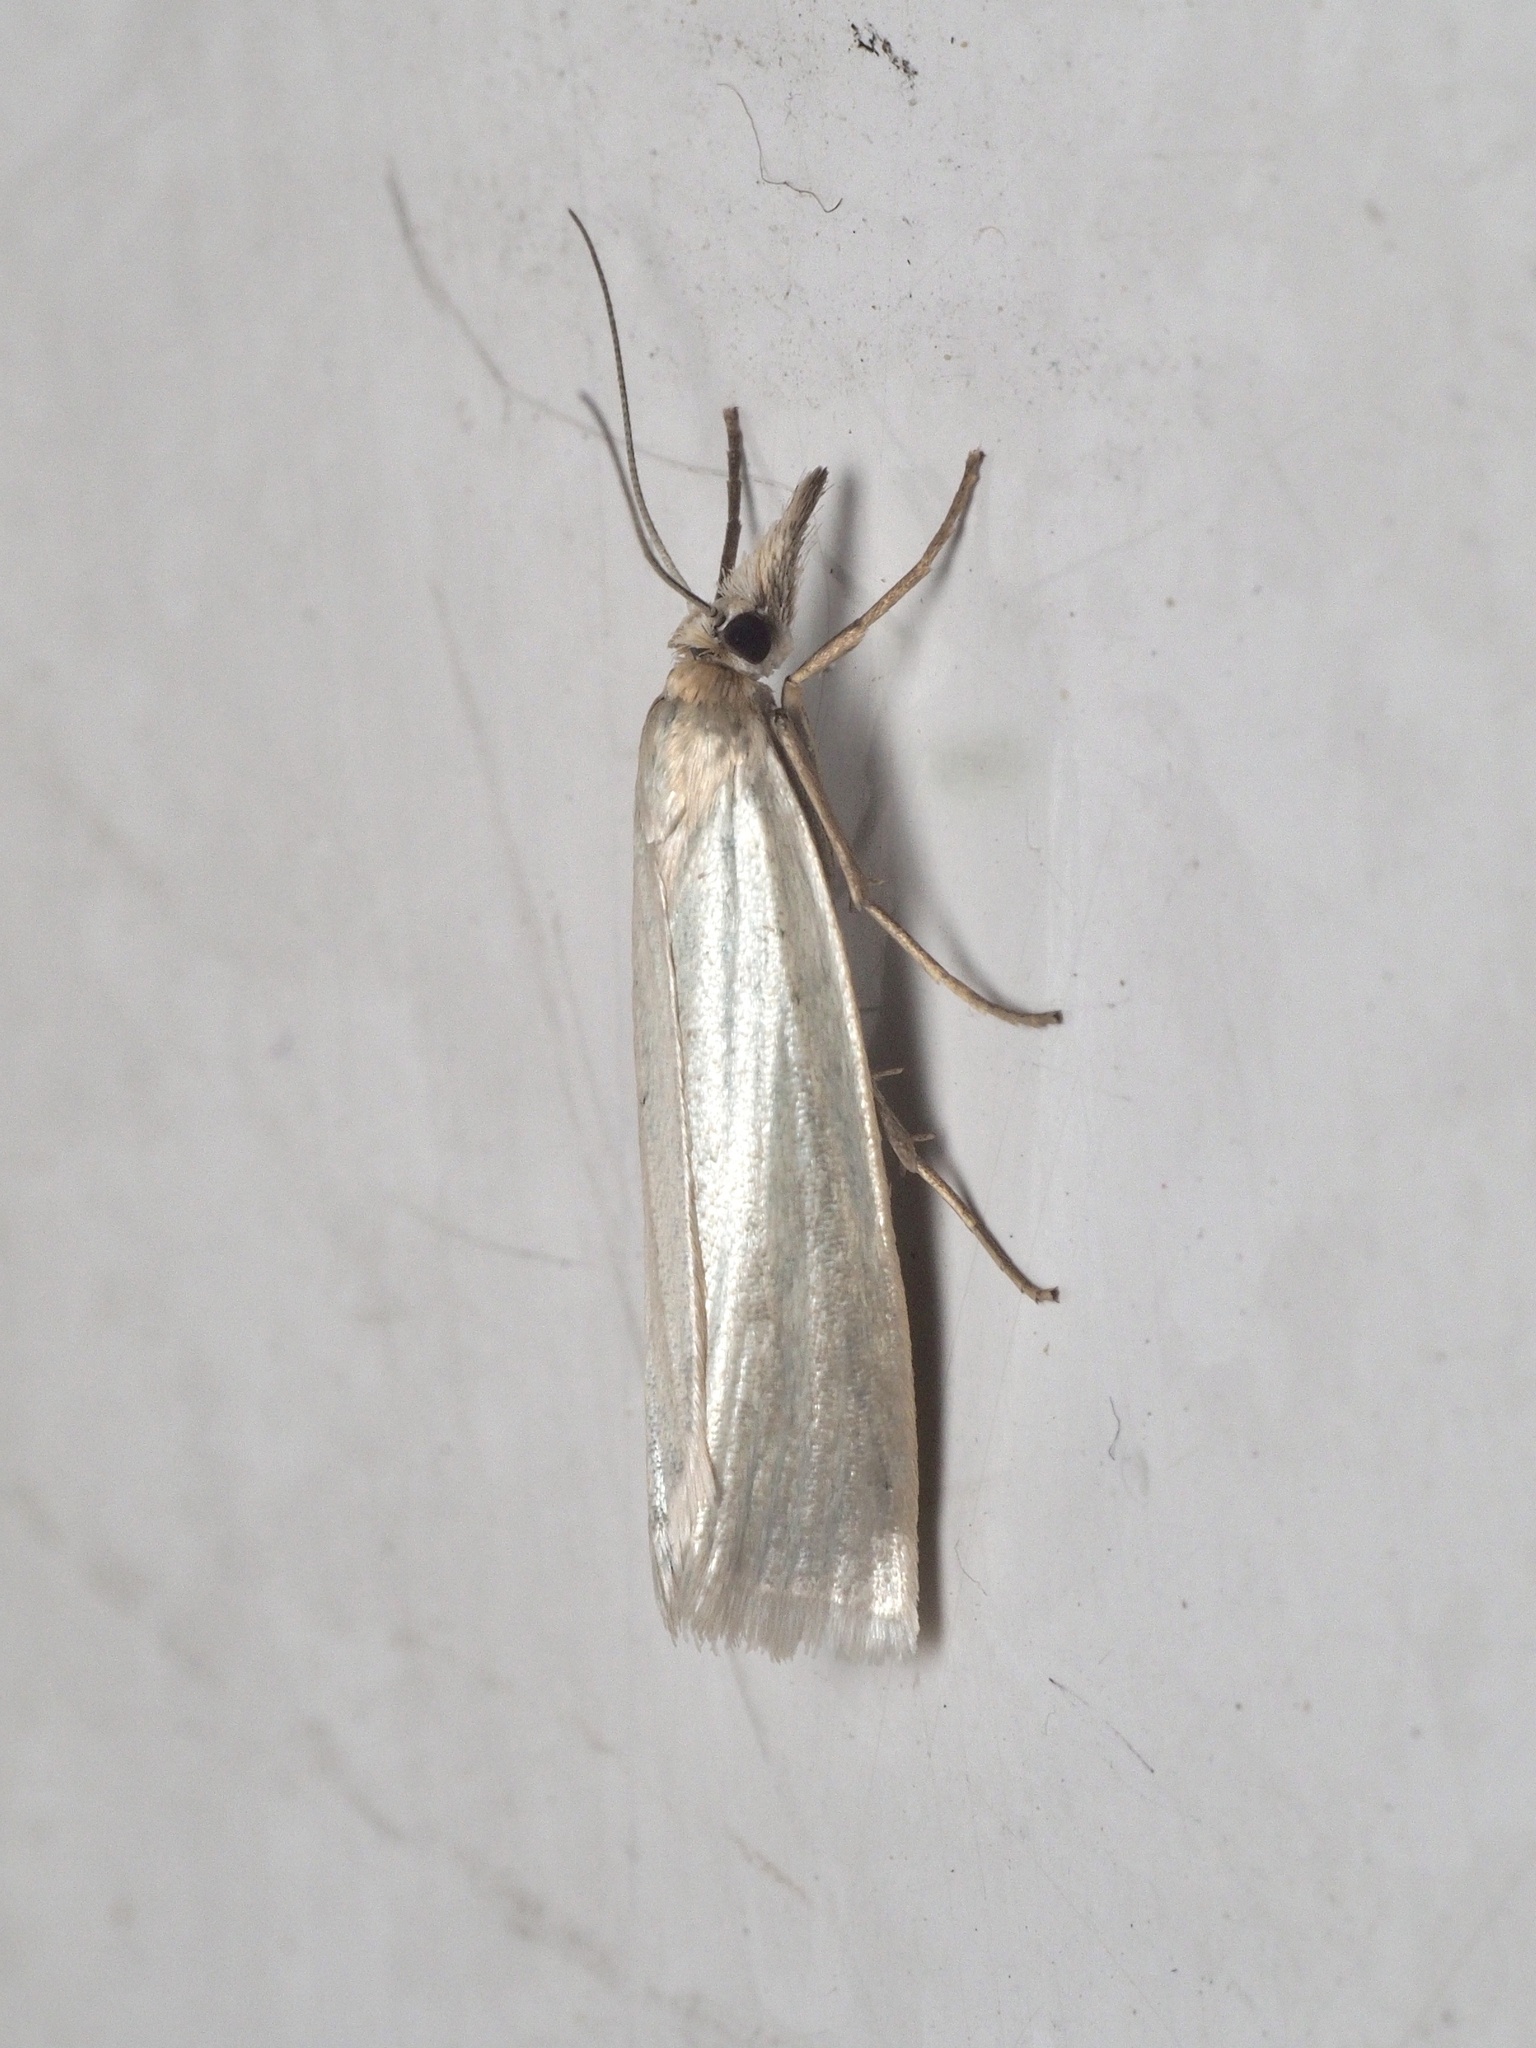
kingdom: Animalia
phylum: Arthropoda
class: Insecta
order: Lepidoptera
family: Crambidae
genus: Crambus
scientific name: Crambus perlellus
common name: Yellow satin veneer
